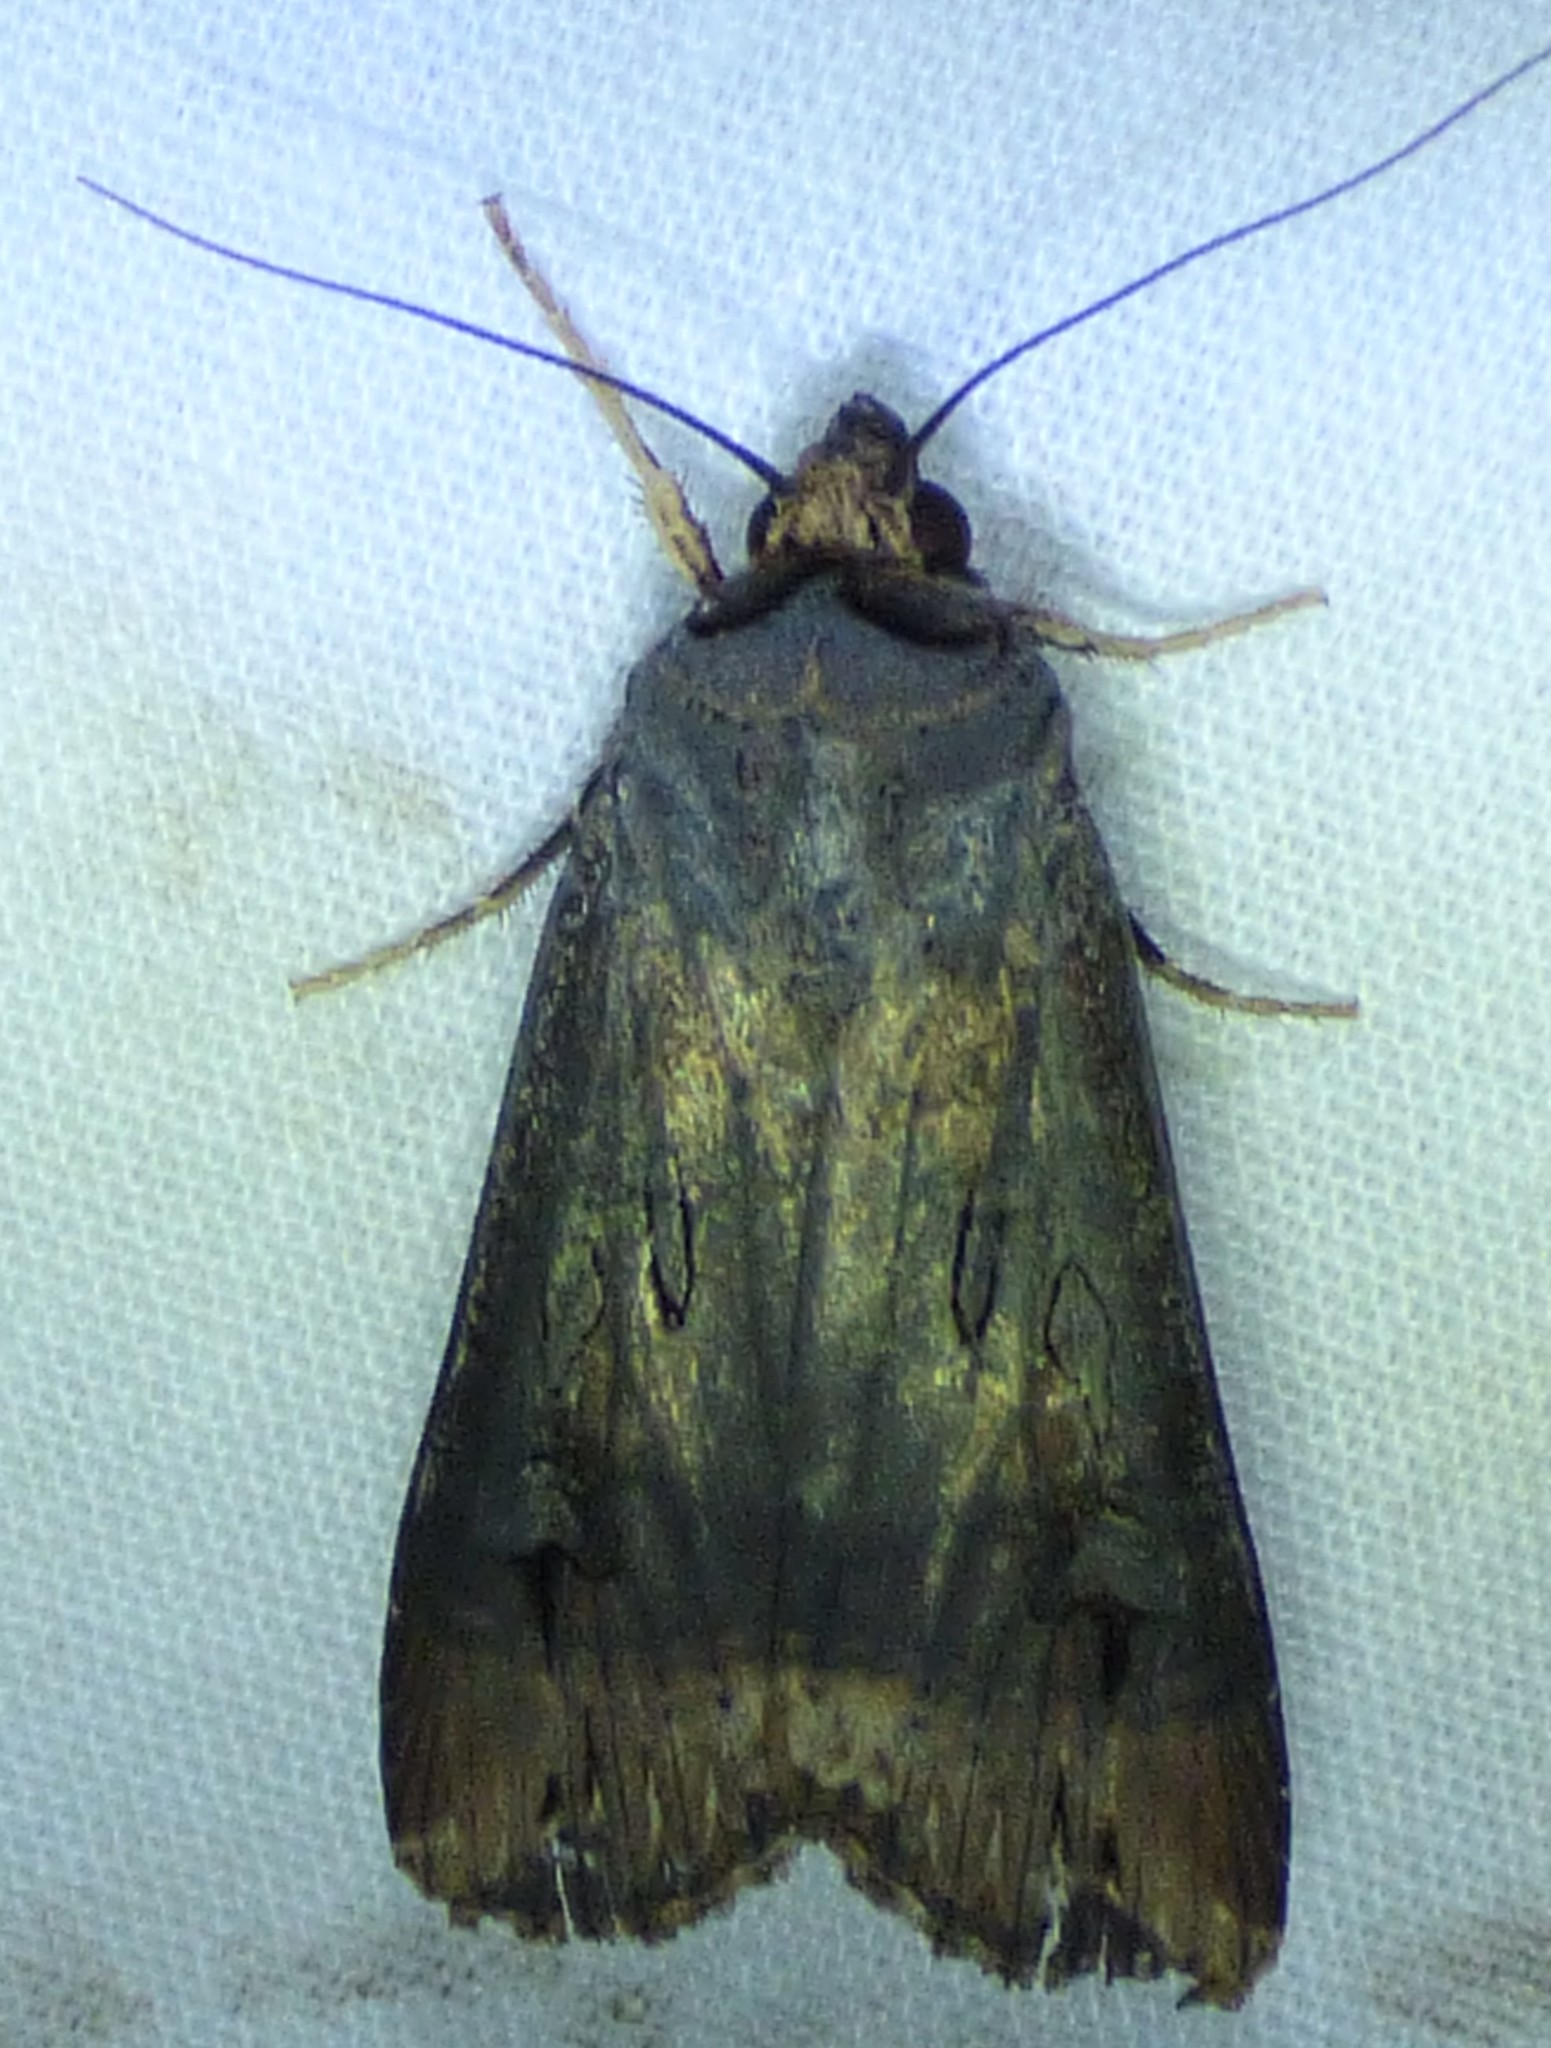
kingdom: Animalia
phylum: Arthropoda
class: Insecta
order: Lepidoptera
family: Noctuidae
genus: Agrotis
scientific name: Agrotis ipsilon
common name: Dark sword-grass
